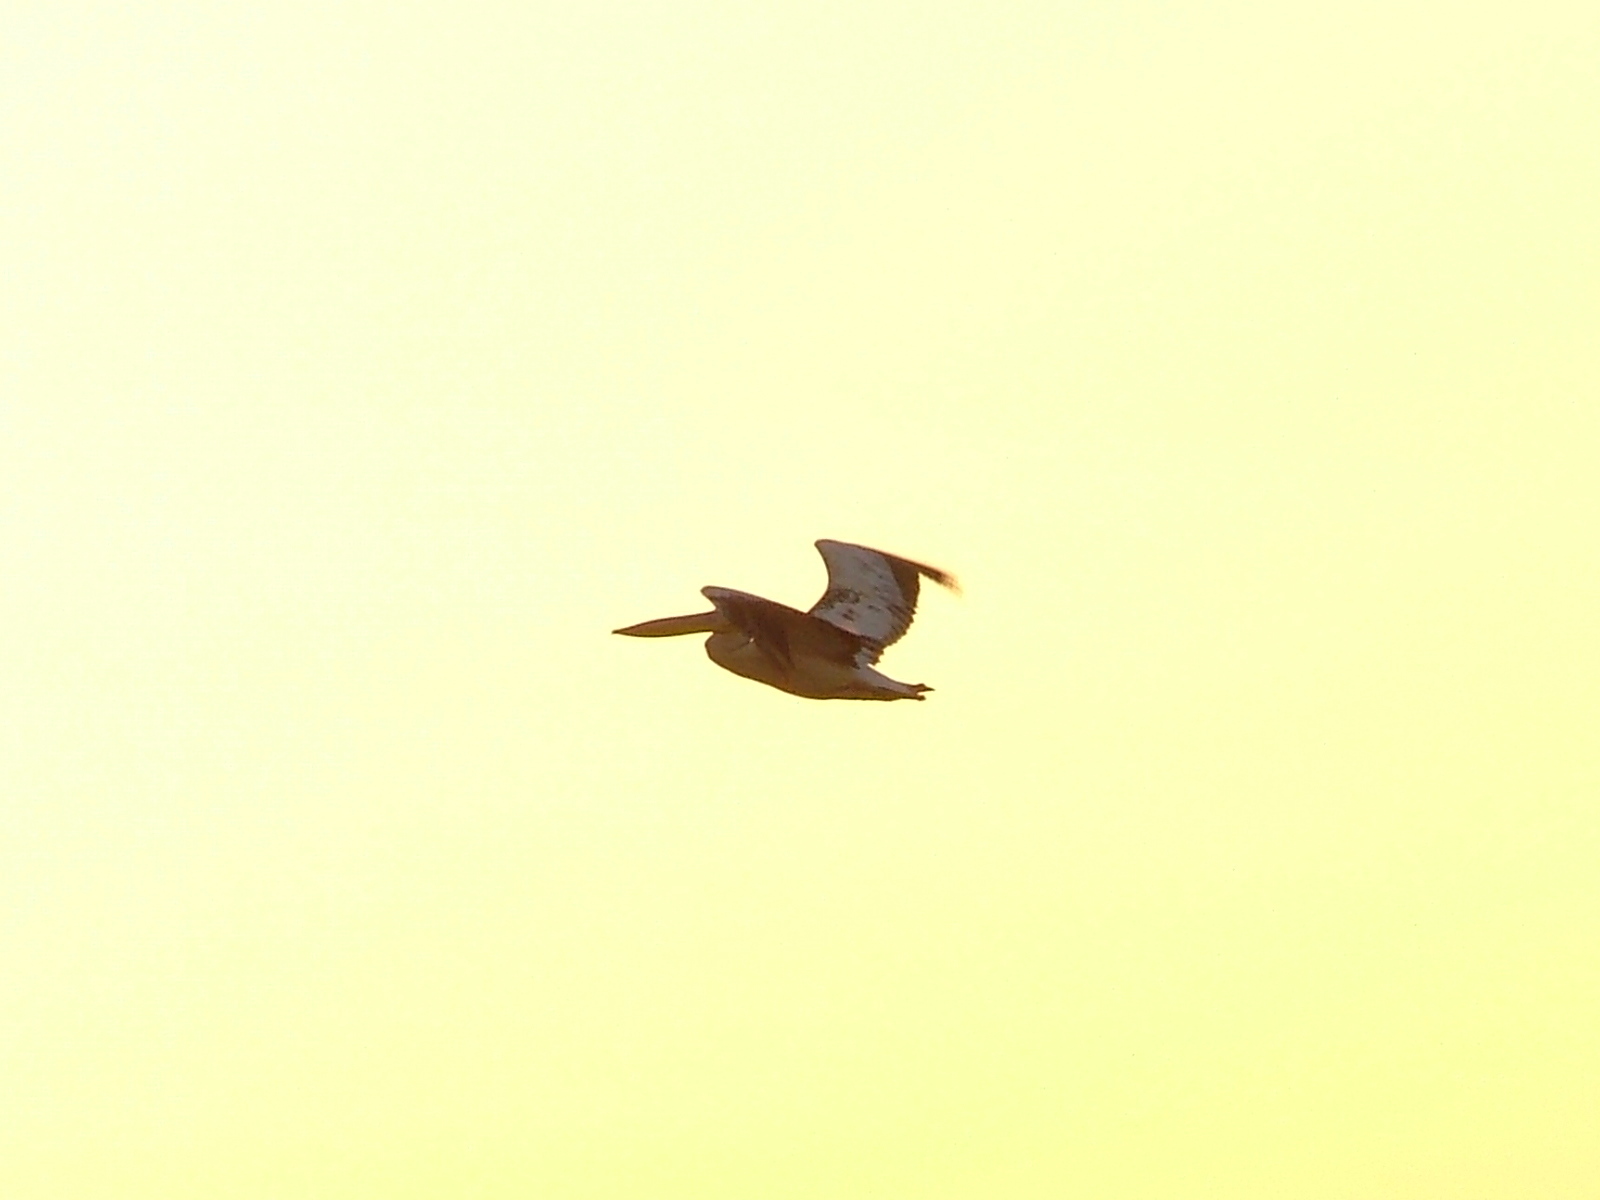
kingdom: Animalia
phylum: Chordata
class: Aves
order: Pelecaniformes
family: Pelecanidae
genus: Pelecanus
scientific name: Pelecanus onocrotalus
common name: Great white pelican
